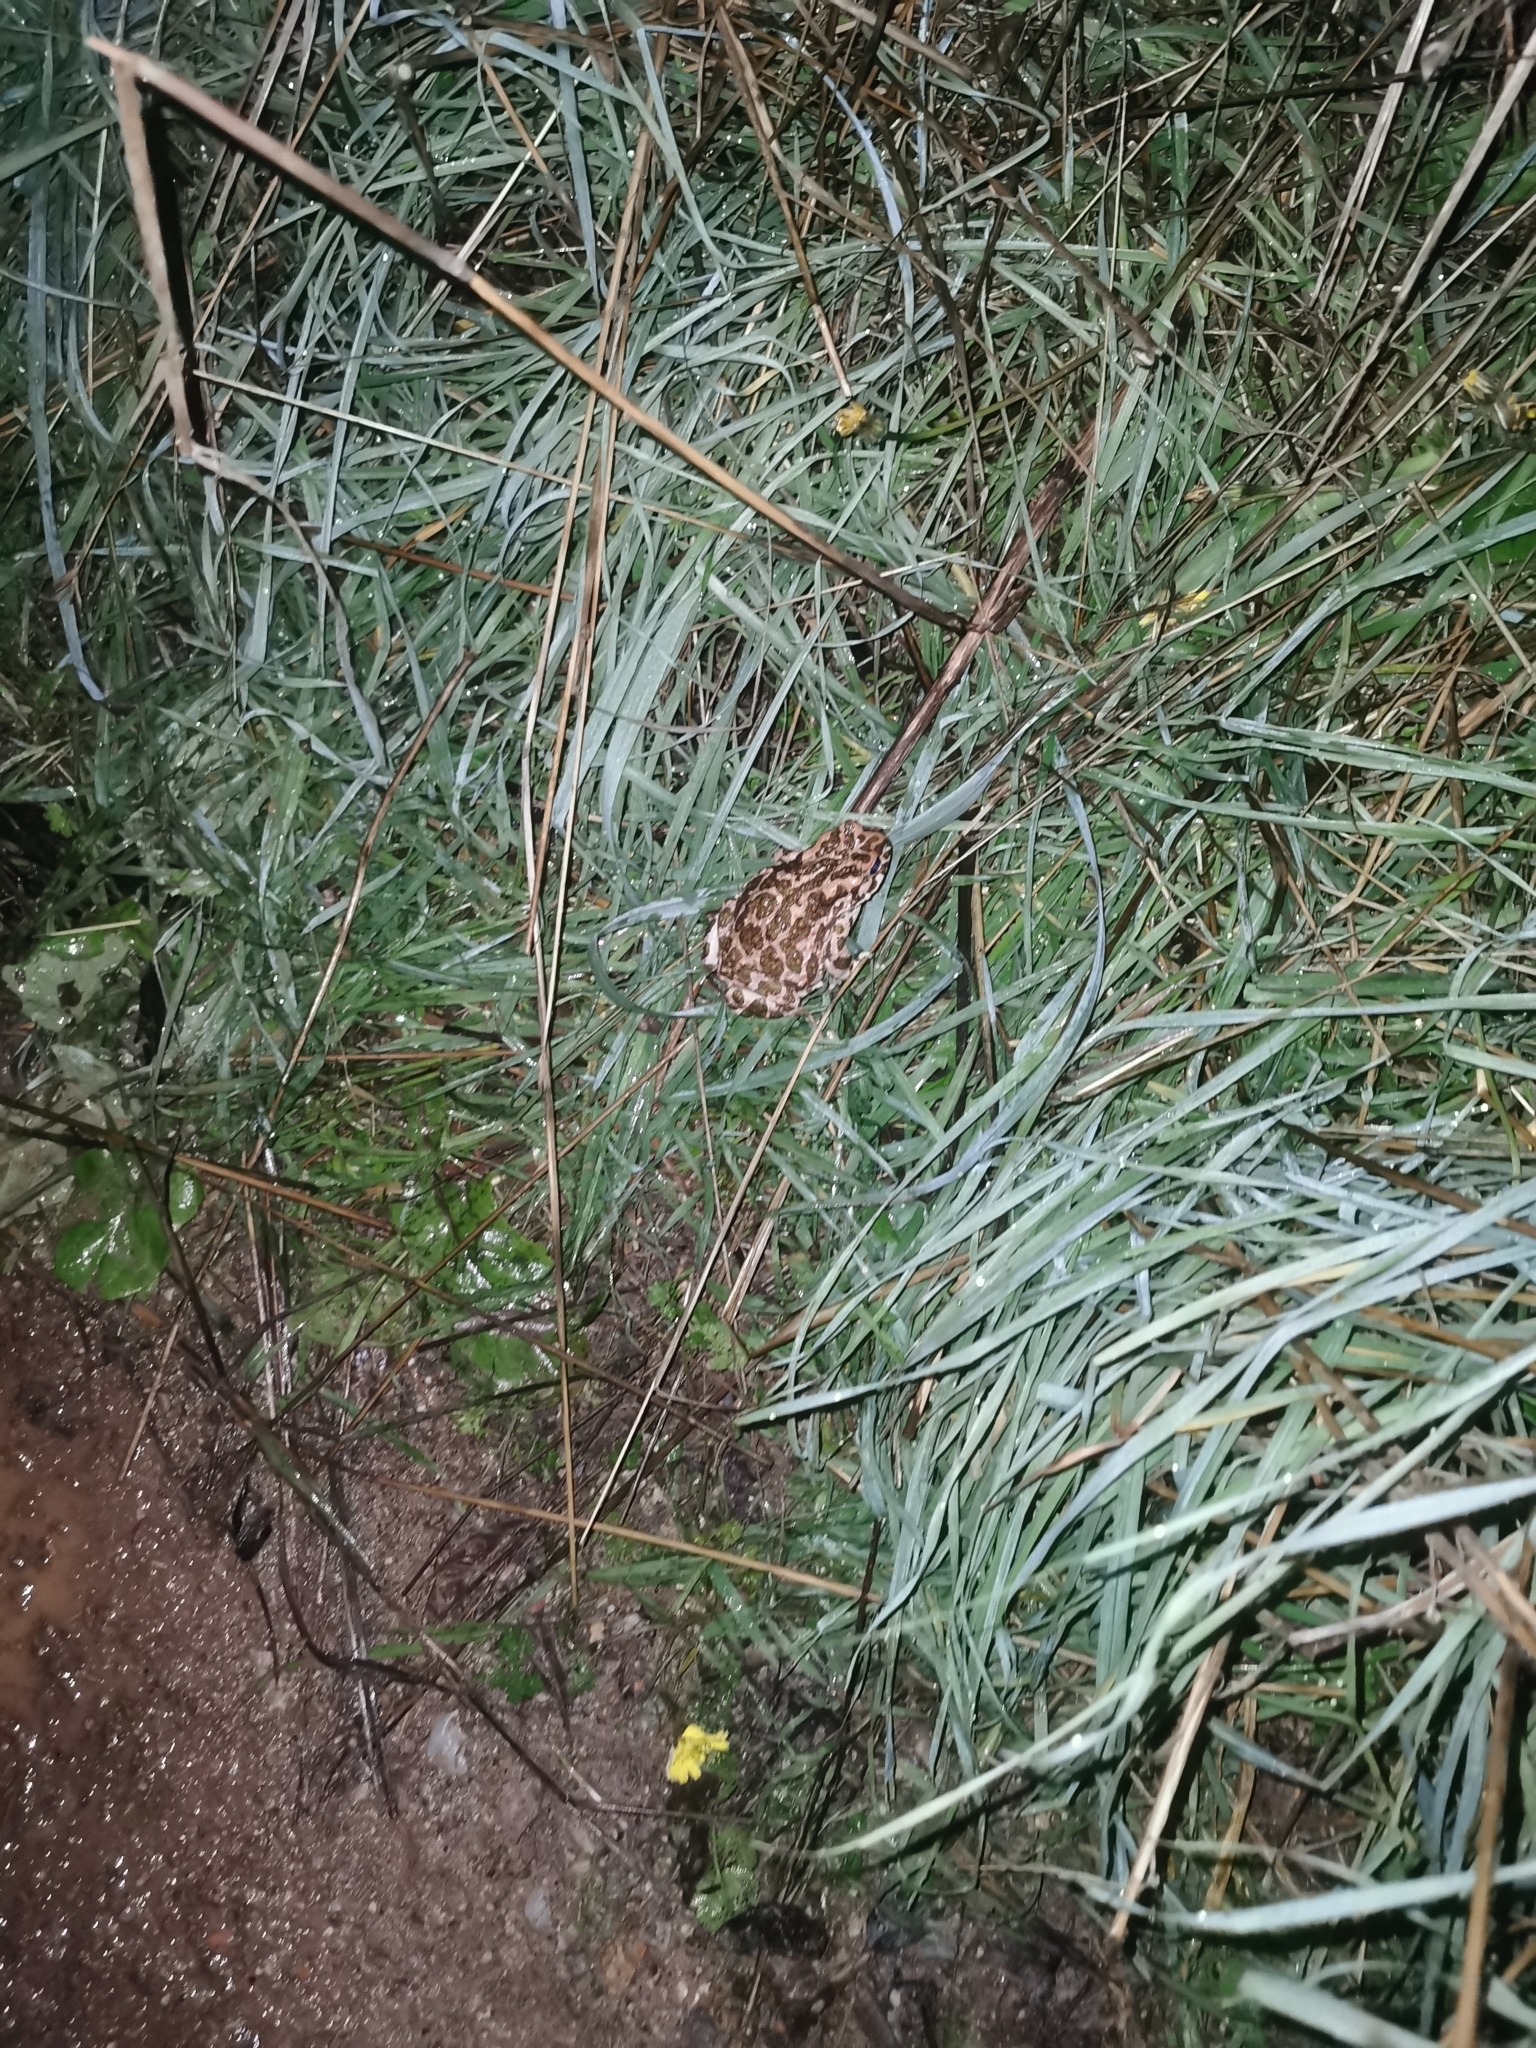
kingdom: Animalia
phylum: Chordata
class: Amphibia
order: Anura
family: Bufonidae
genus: Bufotes
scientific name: Bufotes viridis
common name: European green toad
